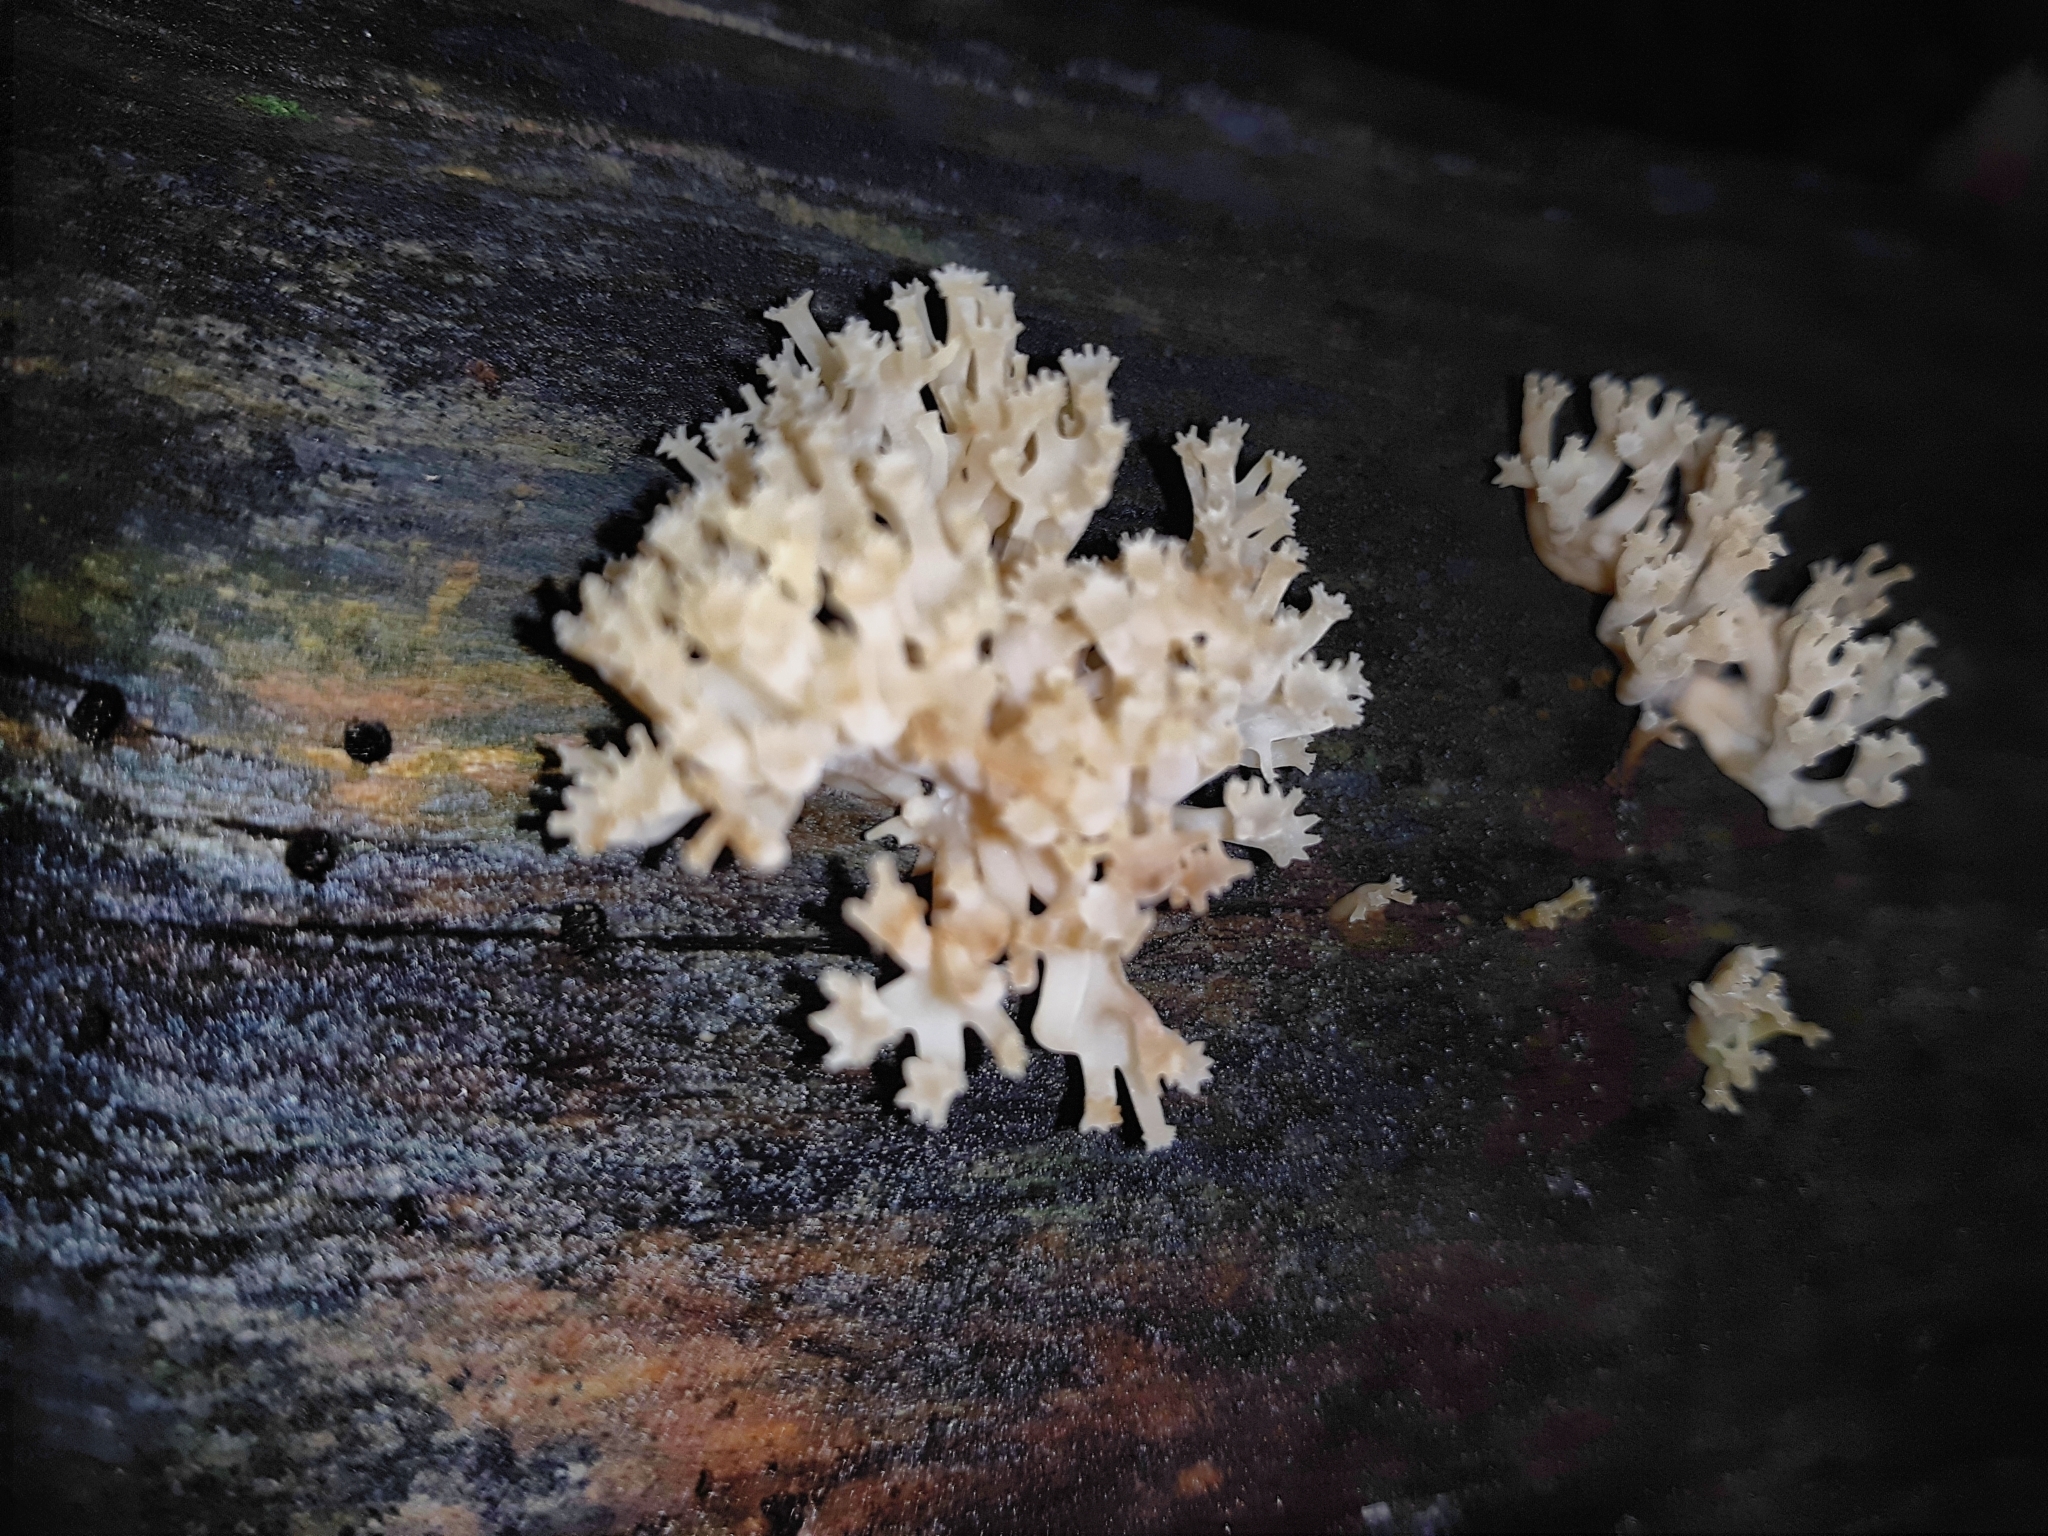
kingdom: Fungi
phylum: Basidiomycota
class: Agaricomycetes
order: Russulales
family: Auriscalpiaceae
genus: Artomyces
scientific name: Artomyces pyxidatus
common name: Crown-tipped coral fungus
